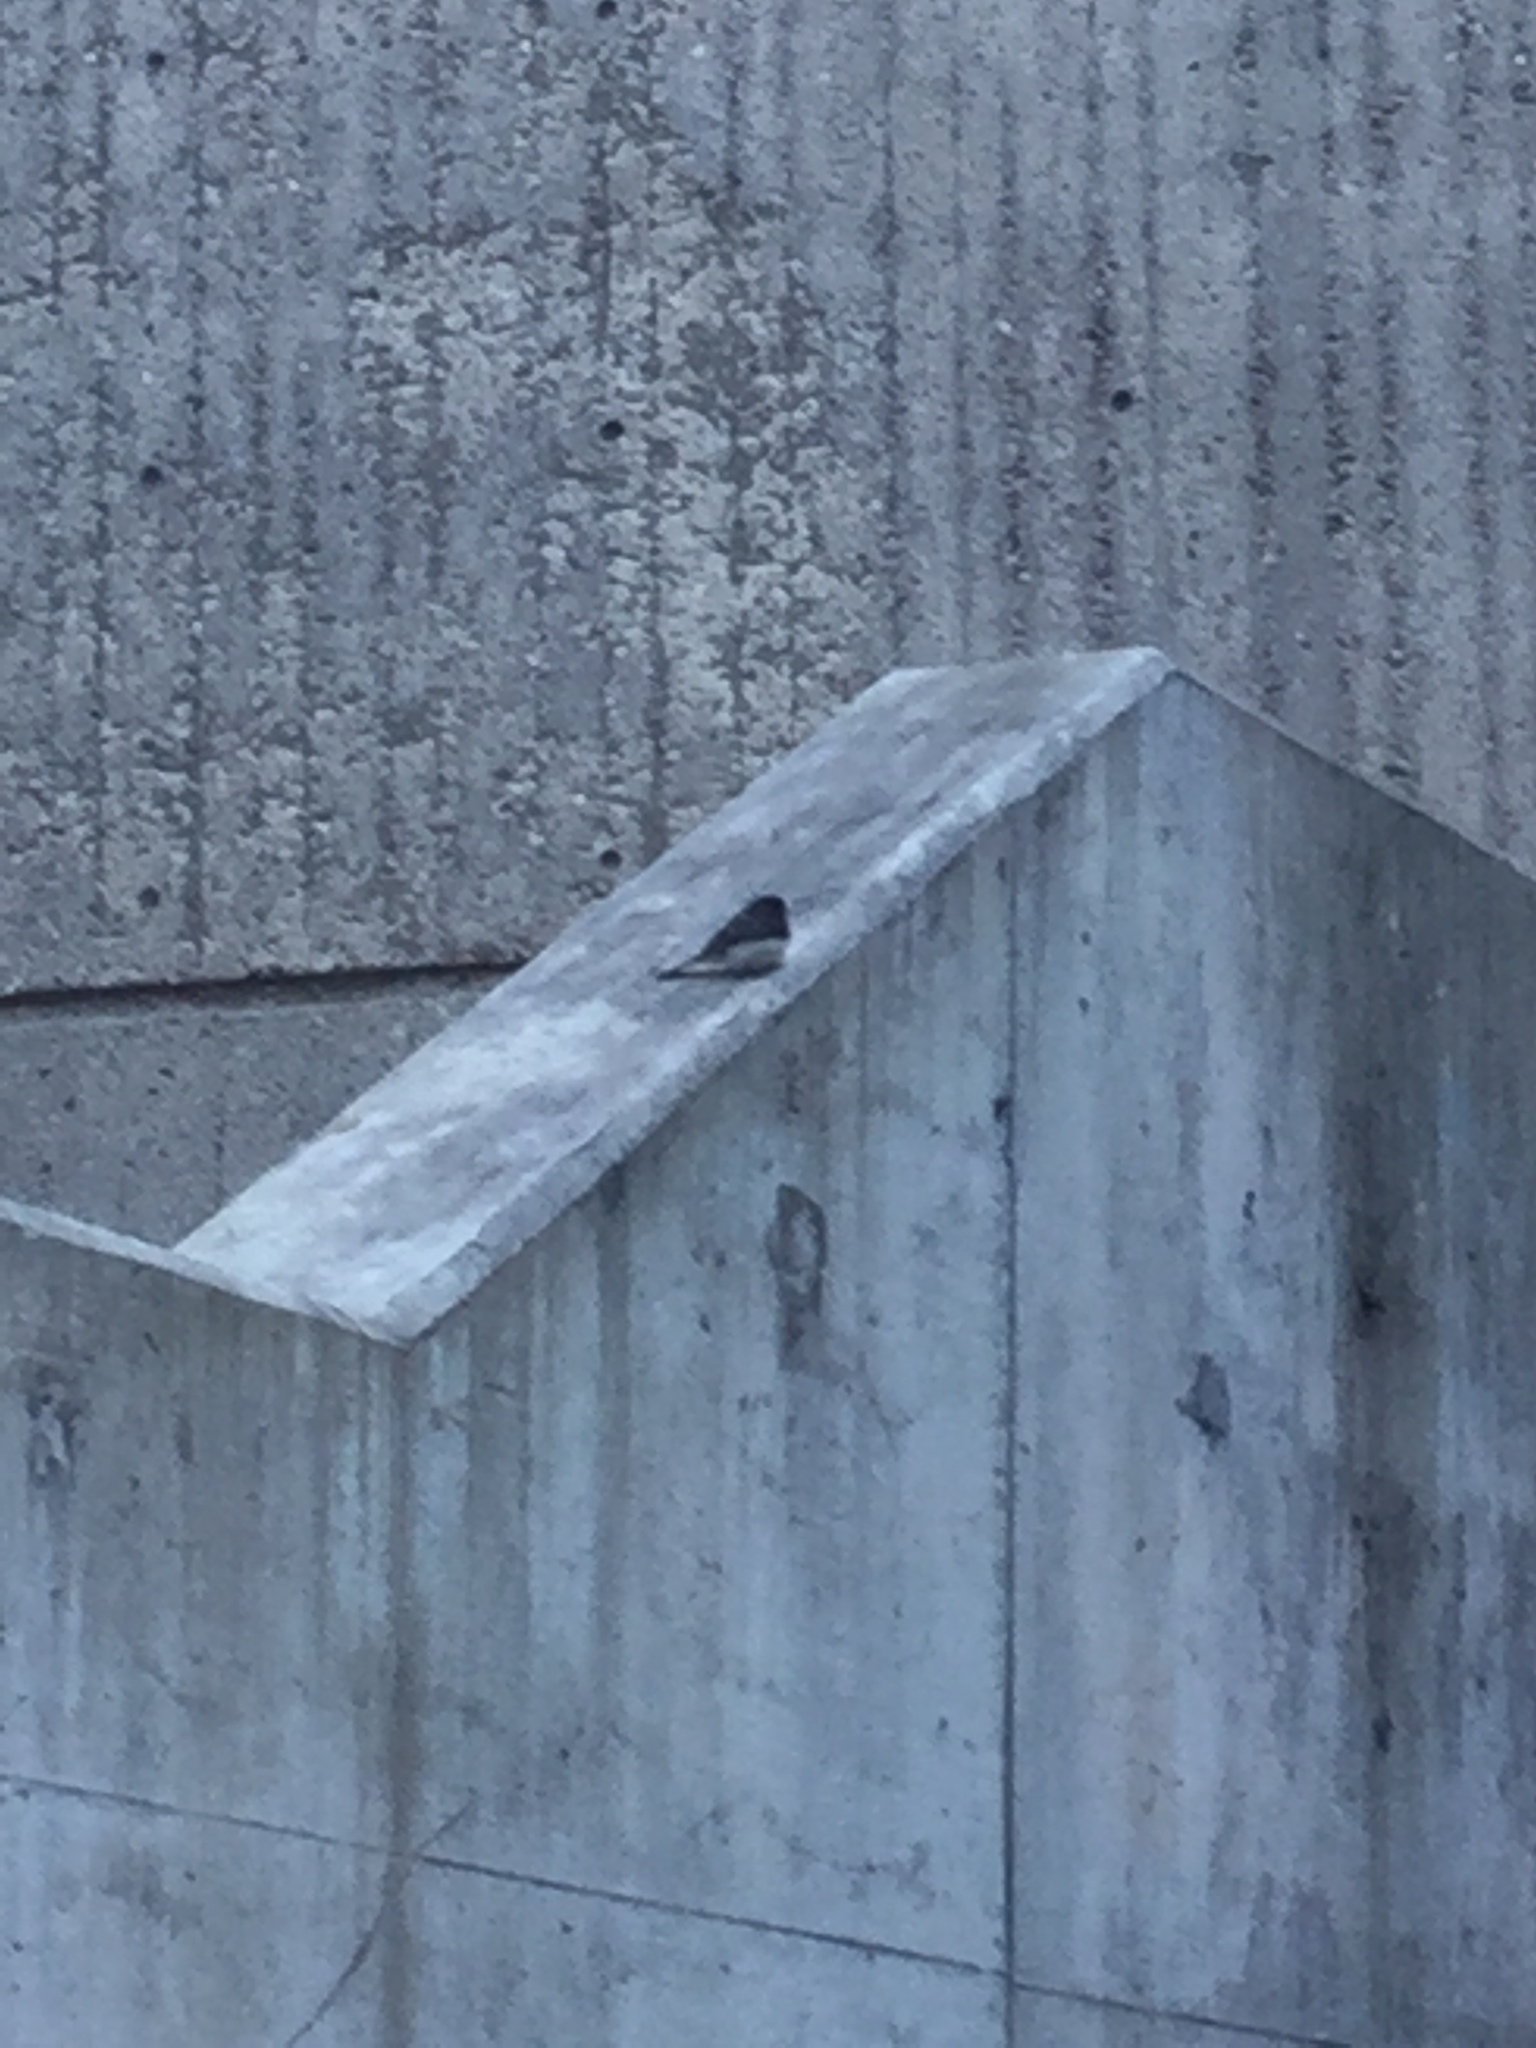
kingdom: Animalia
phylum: Chordata
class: Aves
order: Passeriformes
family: Passerellidae
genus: Junco
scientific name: Junco hyemalis
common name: Dark-eyed junco
